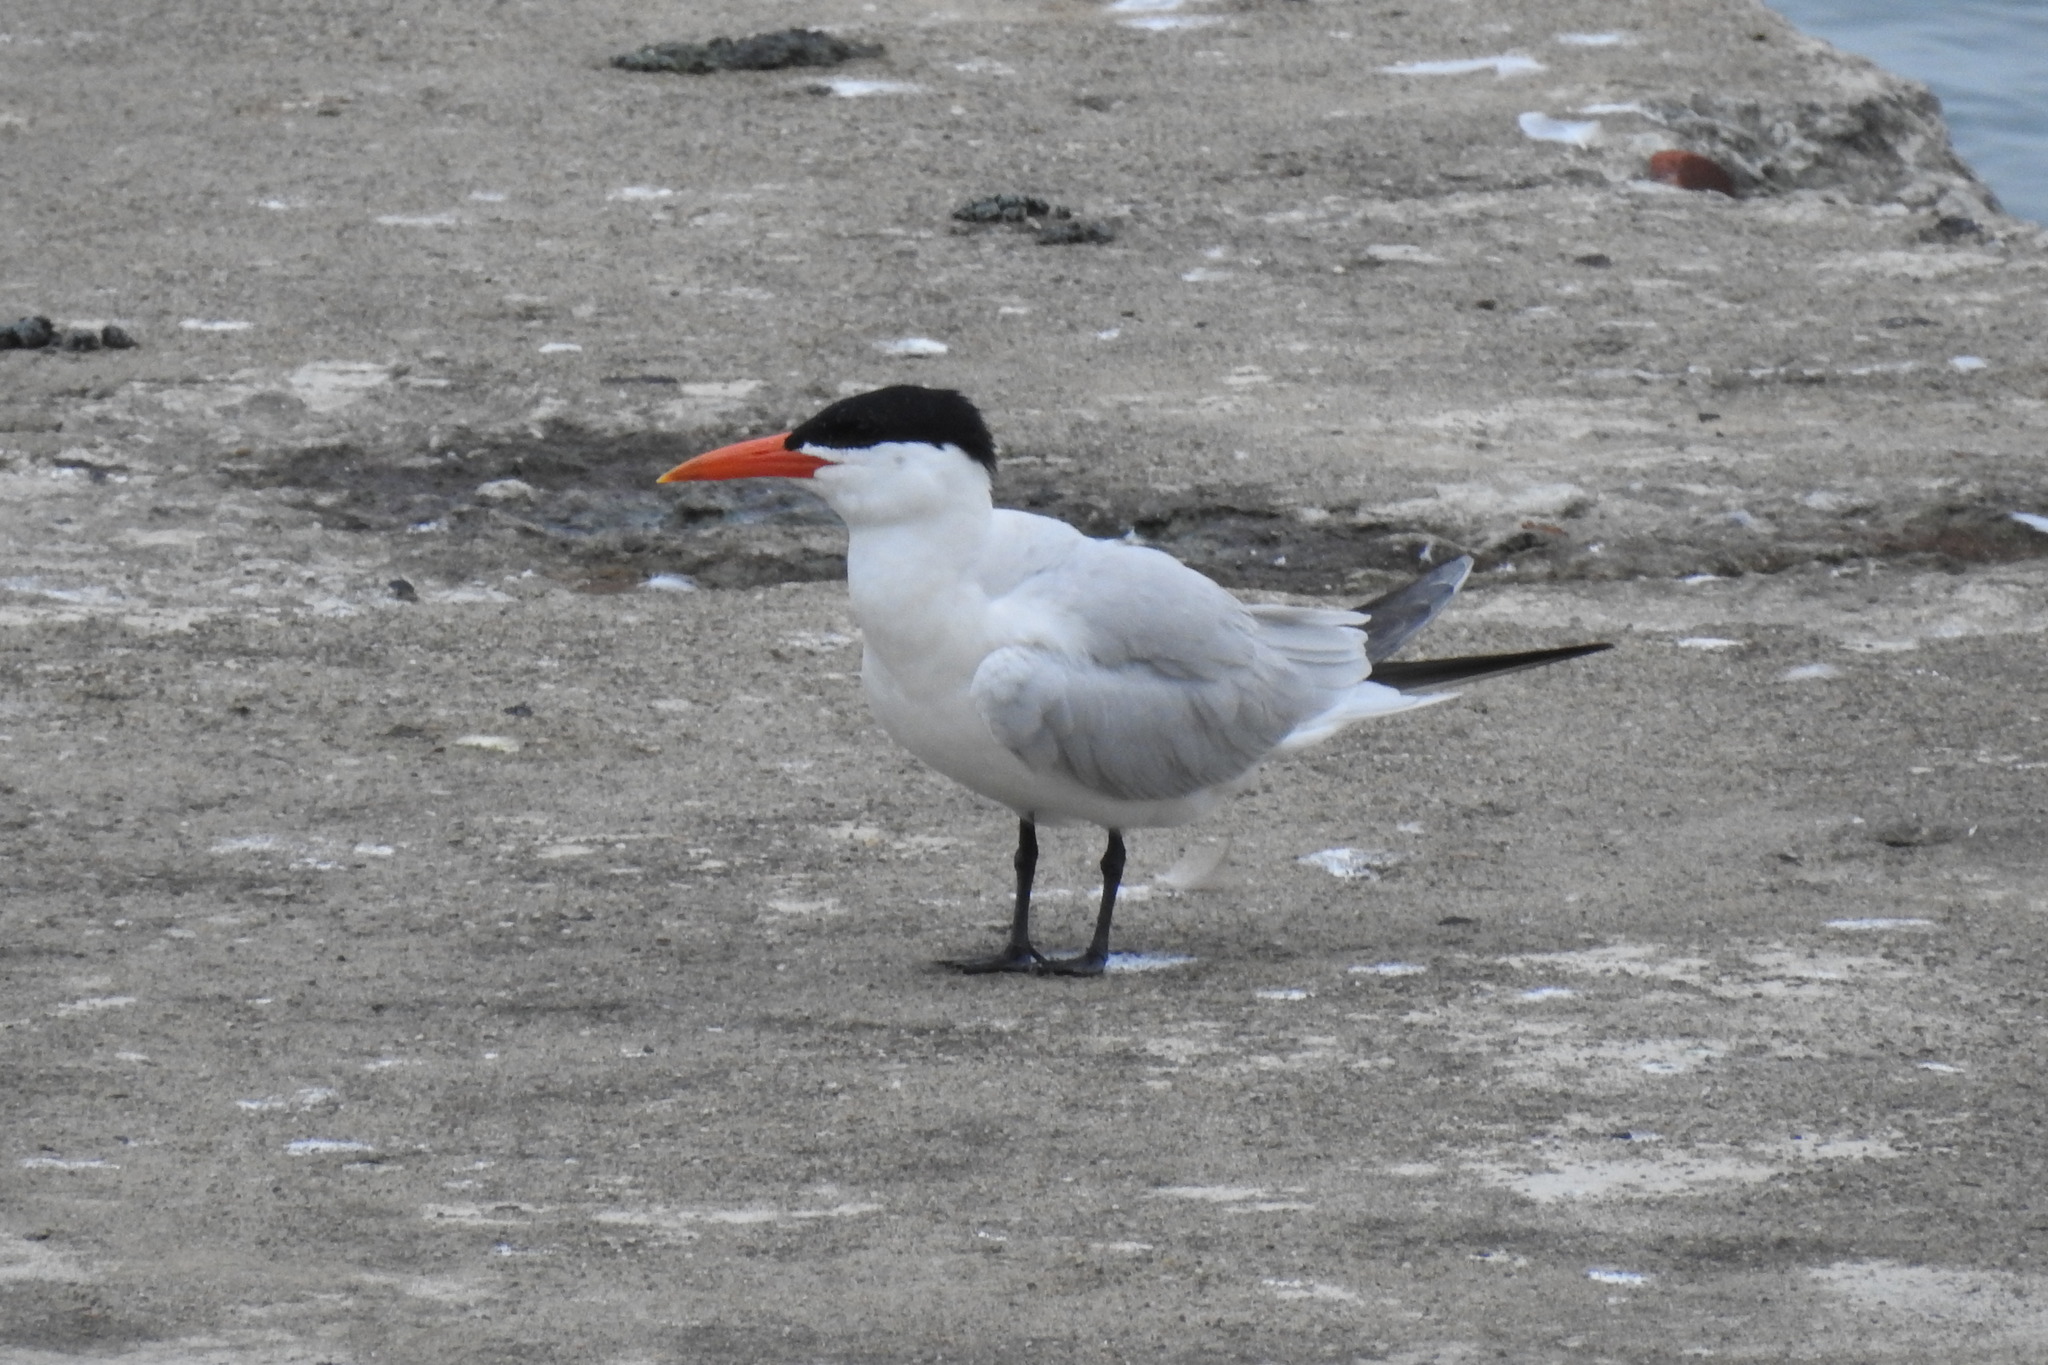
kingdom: Animalia
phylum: Chordata
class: Aves
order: Charadriiformes
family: Laridae
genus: Hydroprogne
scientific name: Hydroprogne caspia
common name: Caspian tern
